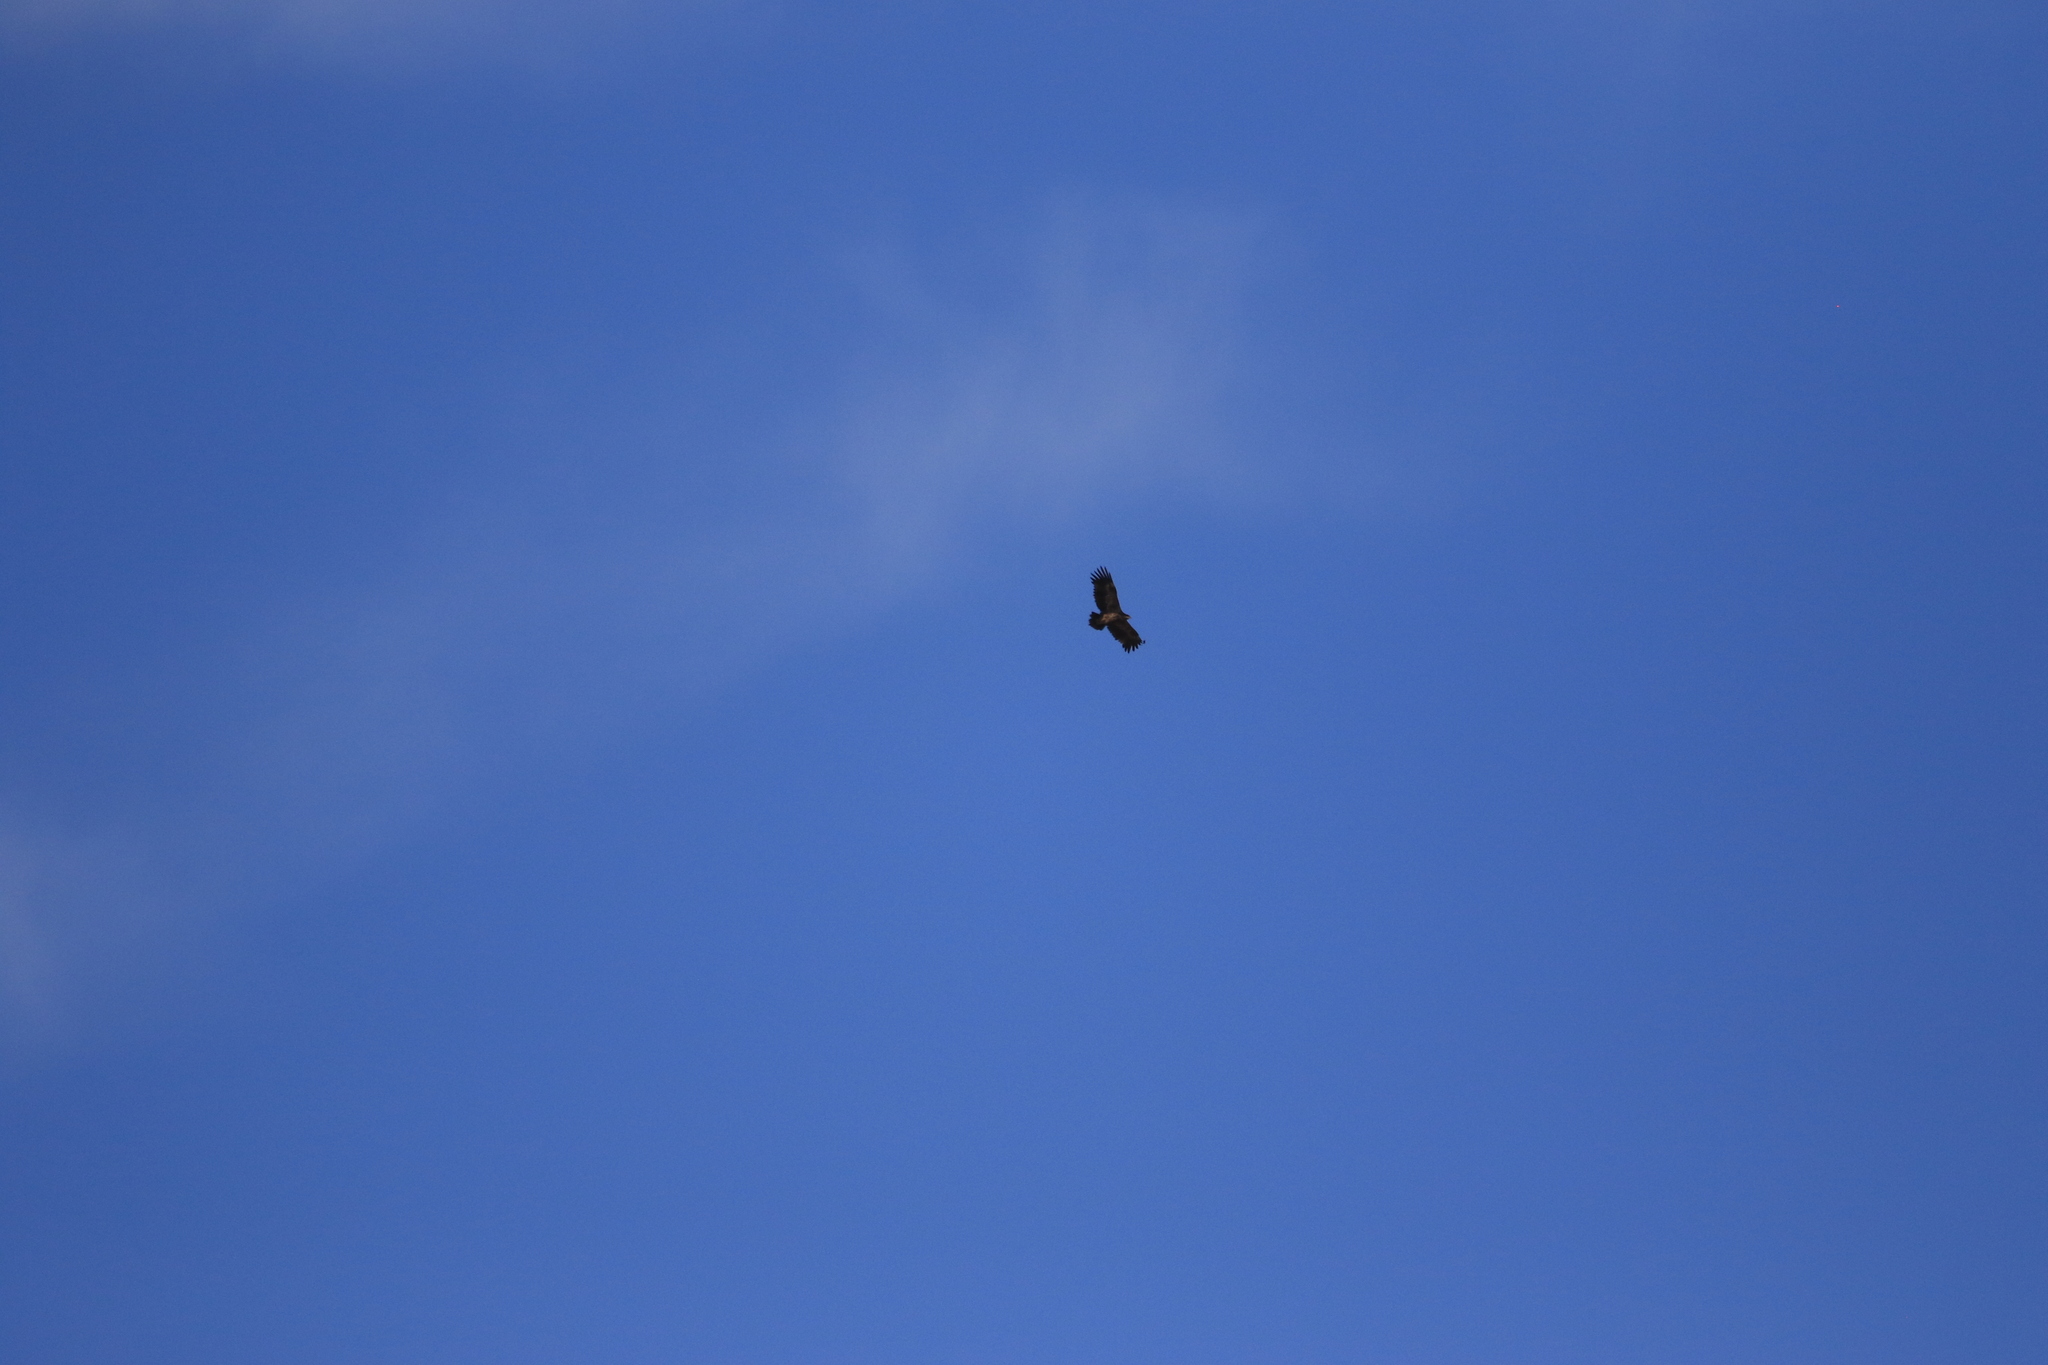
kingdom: Animalia
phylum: Chordata
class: Aves
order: Accipitriformes
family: Accipitridae
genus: Aquila
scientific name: Aquila nipalensis
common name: Steppe eagle
